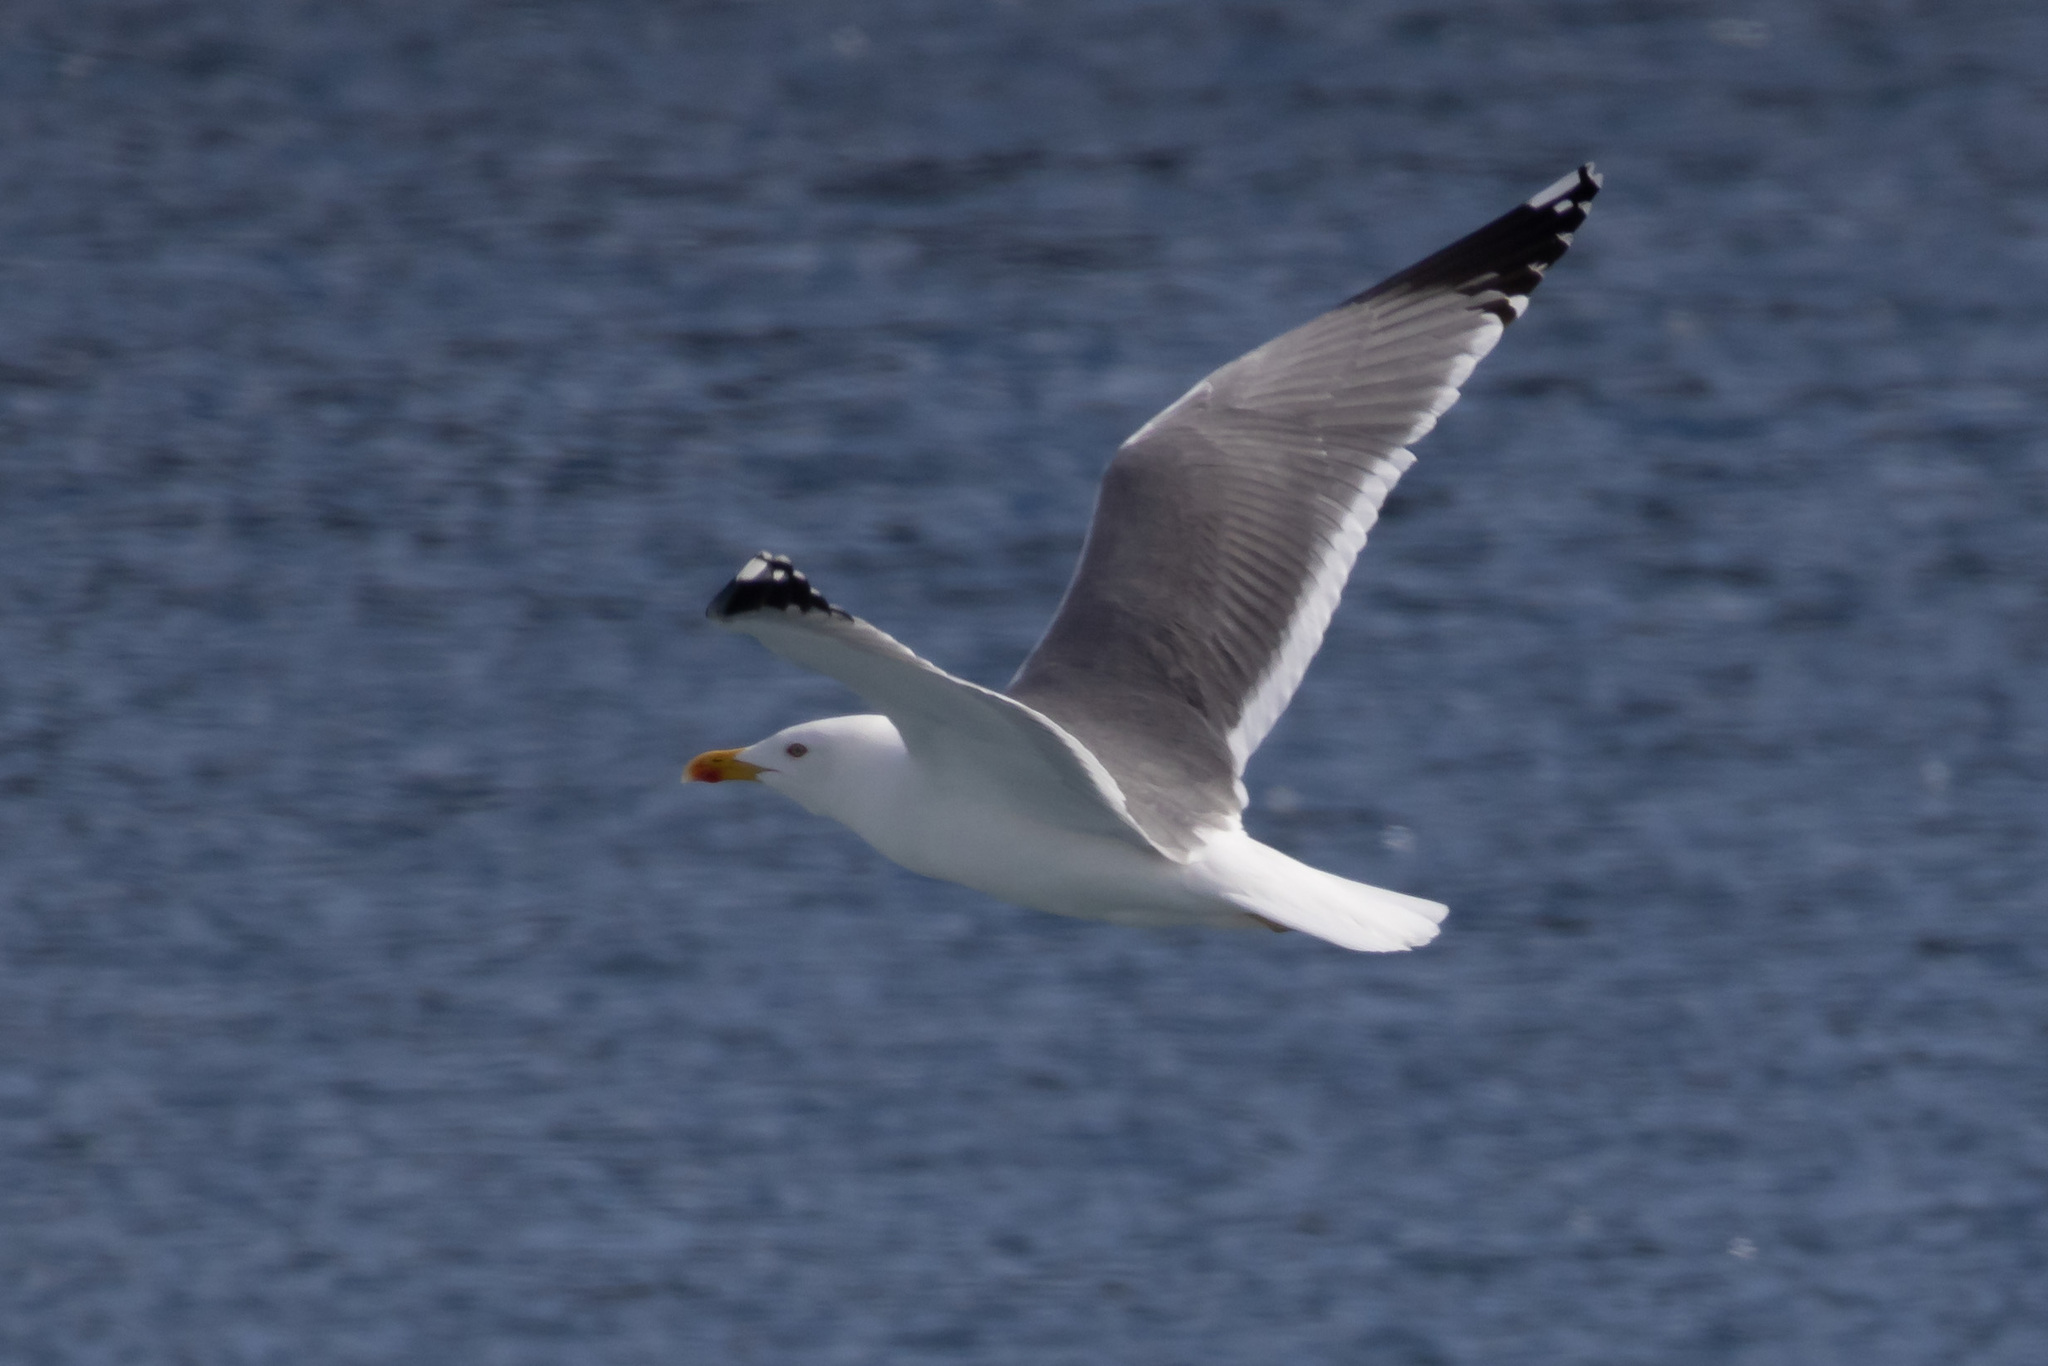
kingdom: Animalia
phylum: Chordata
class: Aves
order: Charadriiformes
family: Laridae
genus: Larus
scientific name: Larus michahellis
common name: Yellow-legged gull
